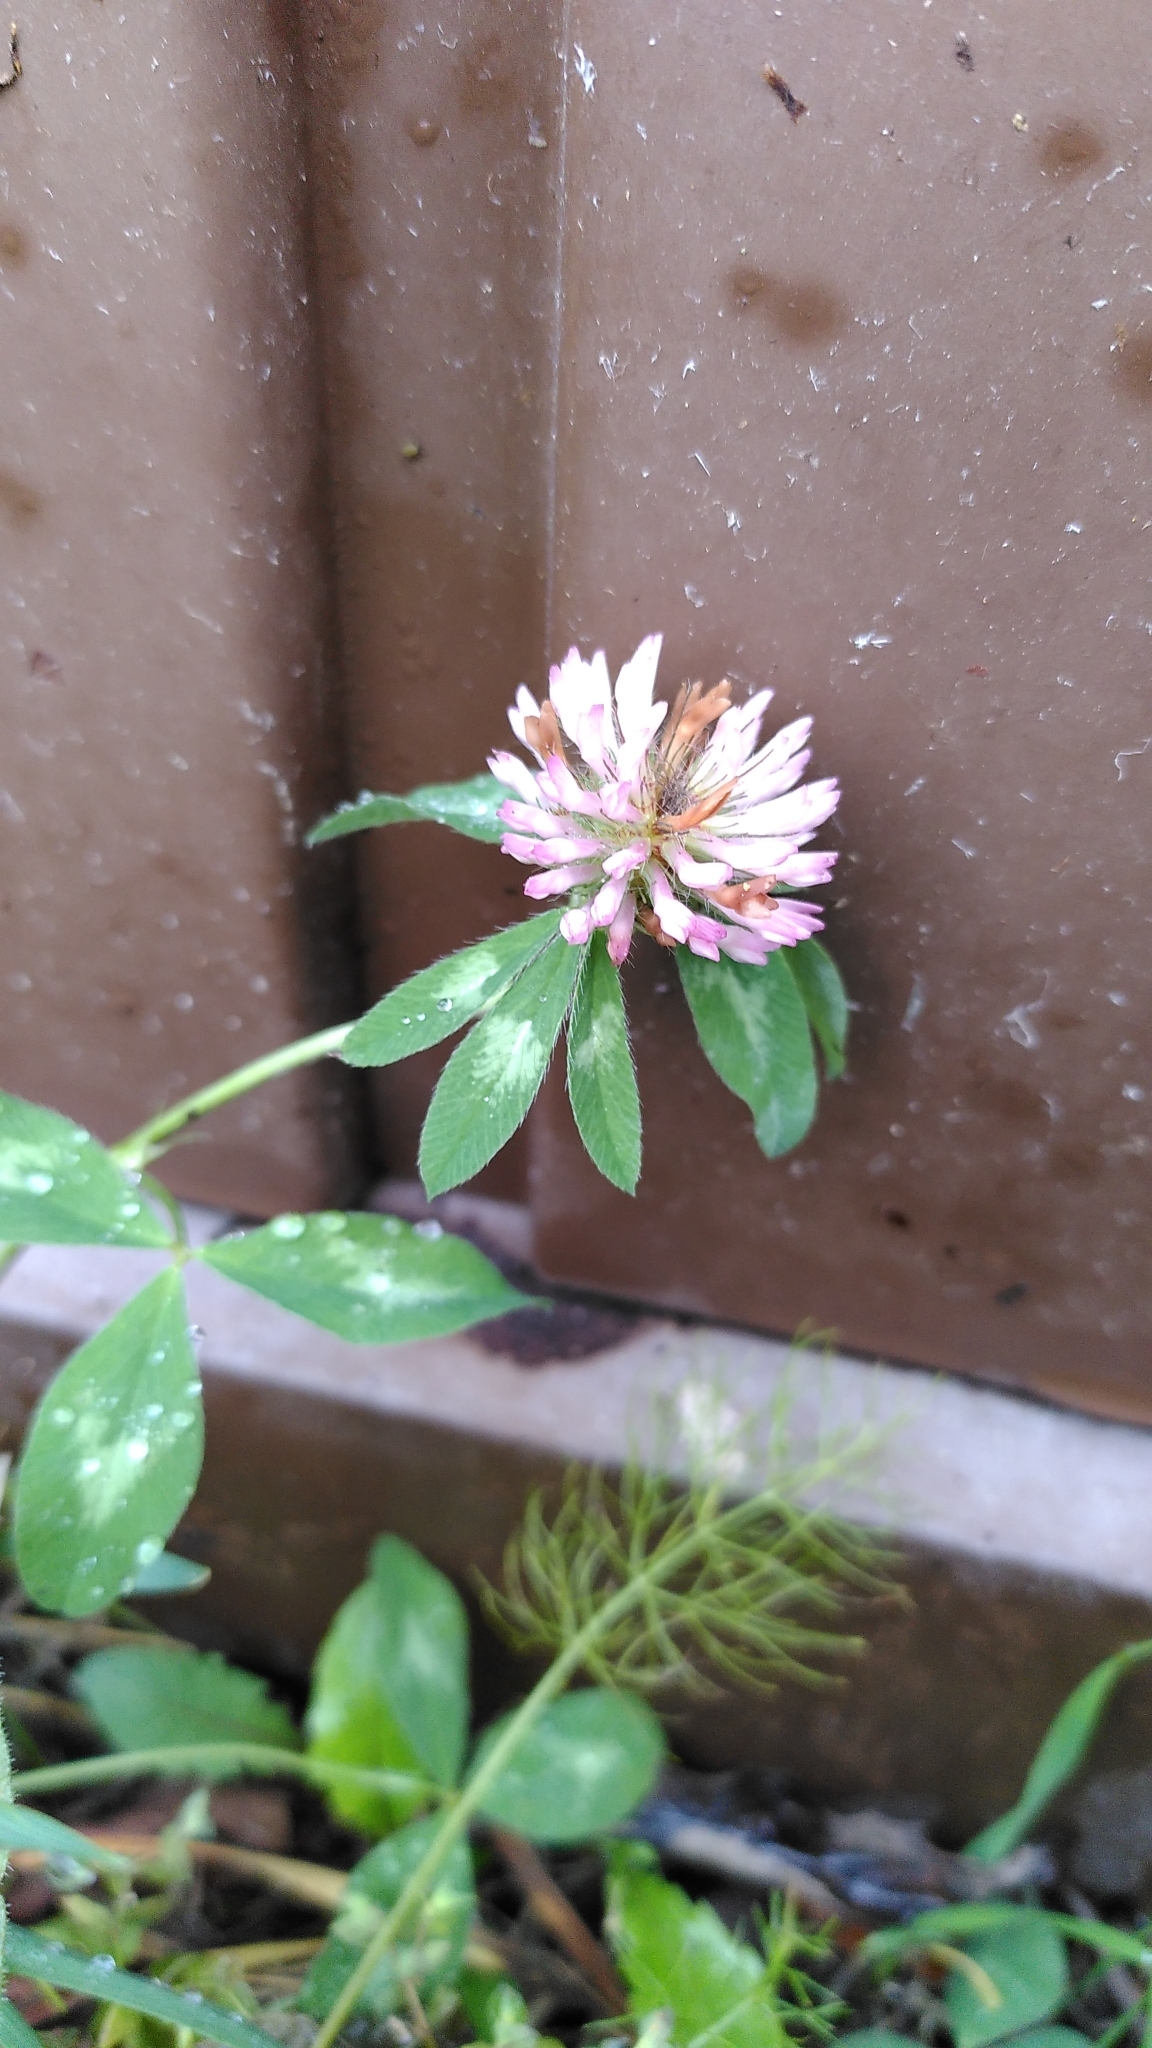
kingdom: Plantae
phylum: Tracheophyta
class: Magnoliopsida
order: Fabales
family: Fabaceae
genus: Trifolium
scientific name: Trifolium pratense
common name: Red clover
